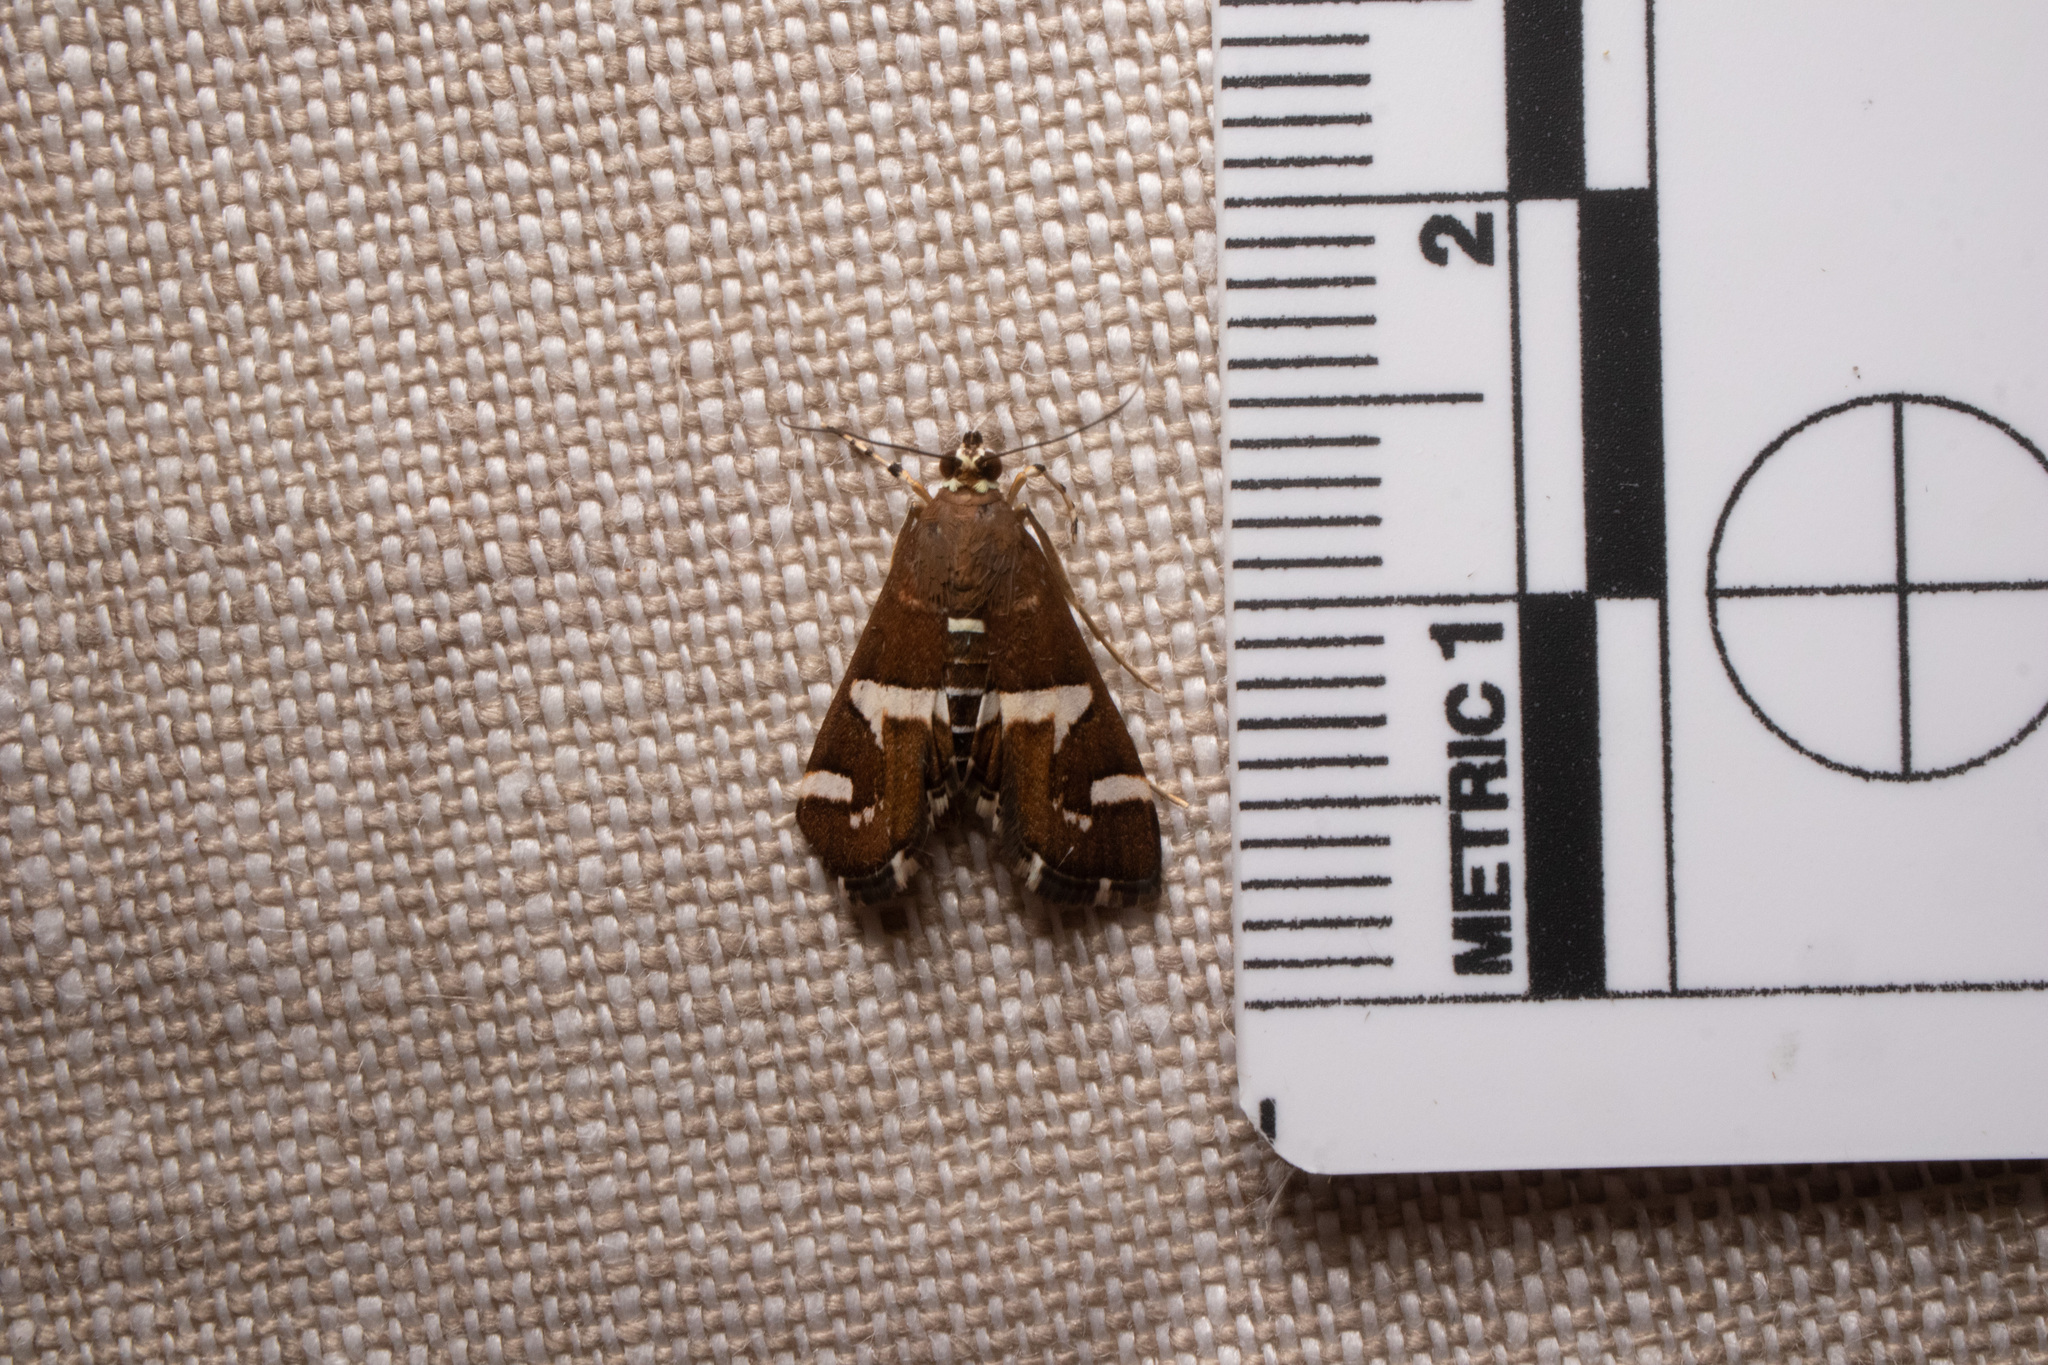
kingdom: Animalia
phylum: Arthropoda
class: Insecta
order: Lepidoptera
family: Crambidae
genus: Spoladea
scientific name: Spoladea recurvalis
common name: Beet webworm moth
